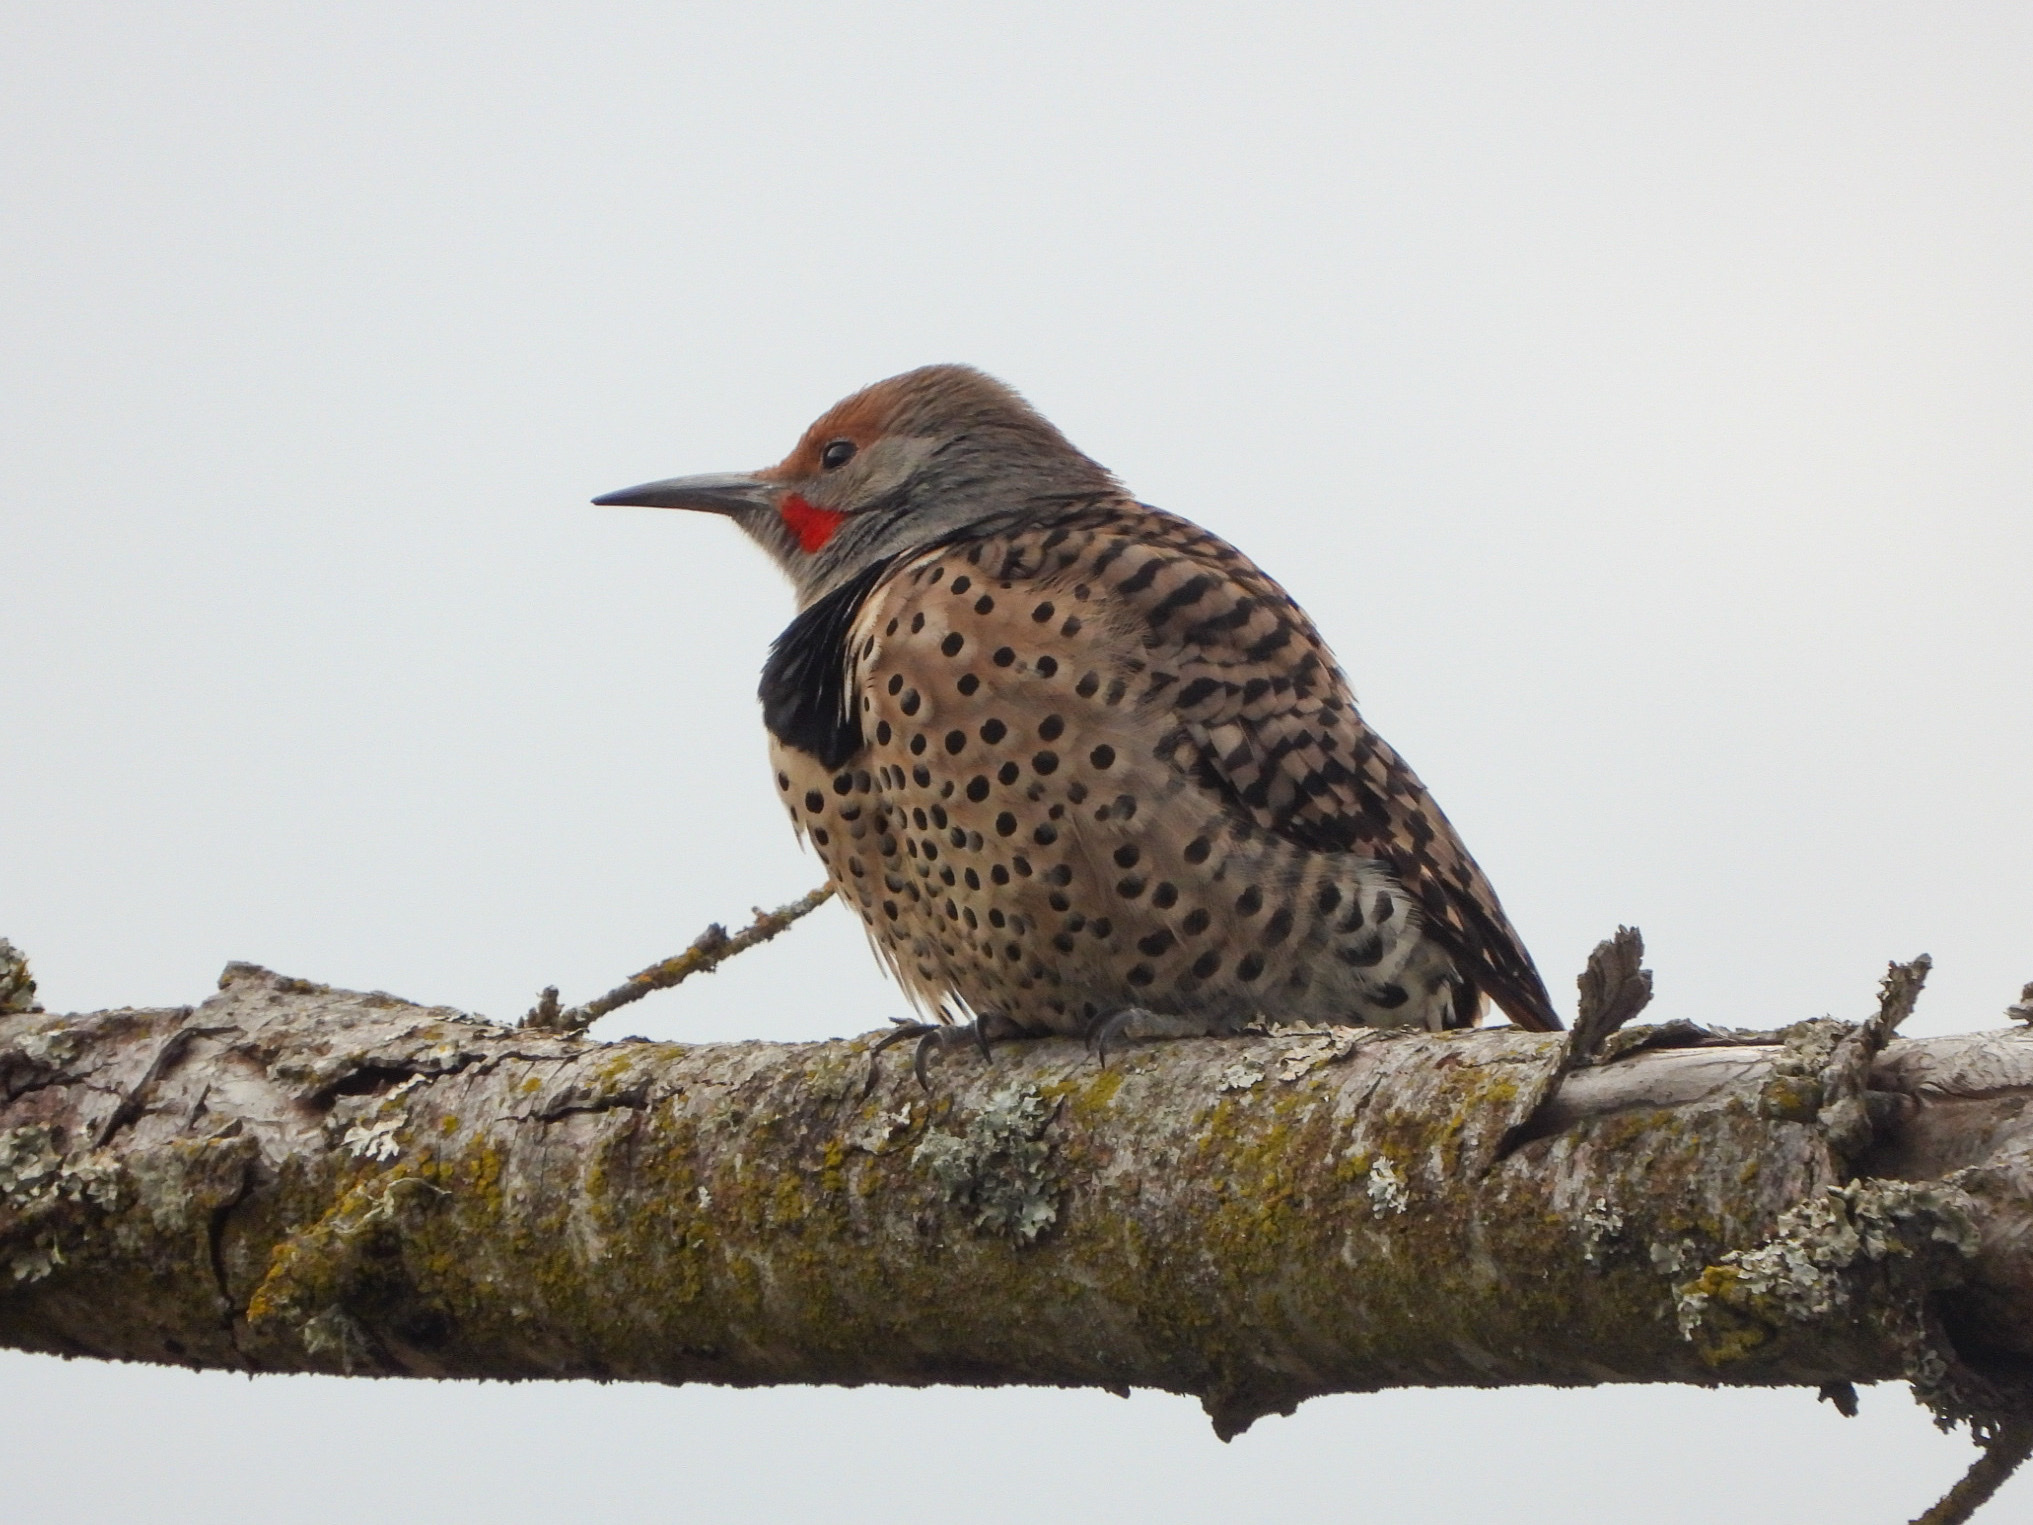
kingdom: Animalia
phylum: Chordata
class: Aves
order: Piciformes
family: Picidae
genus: Colaptes
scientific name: Colaptes auratus
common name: Northern flicker
